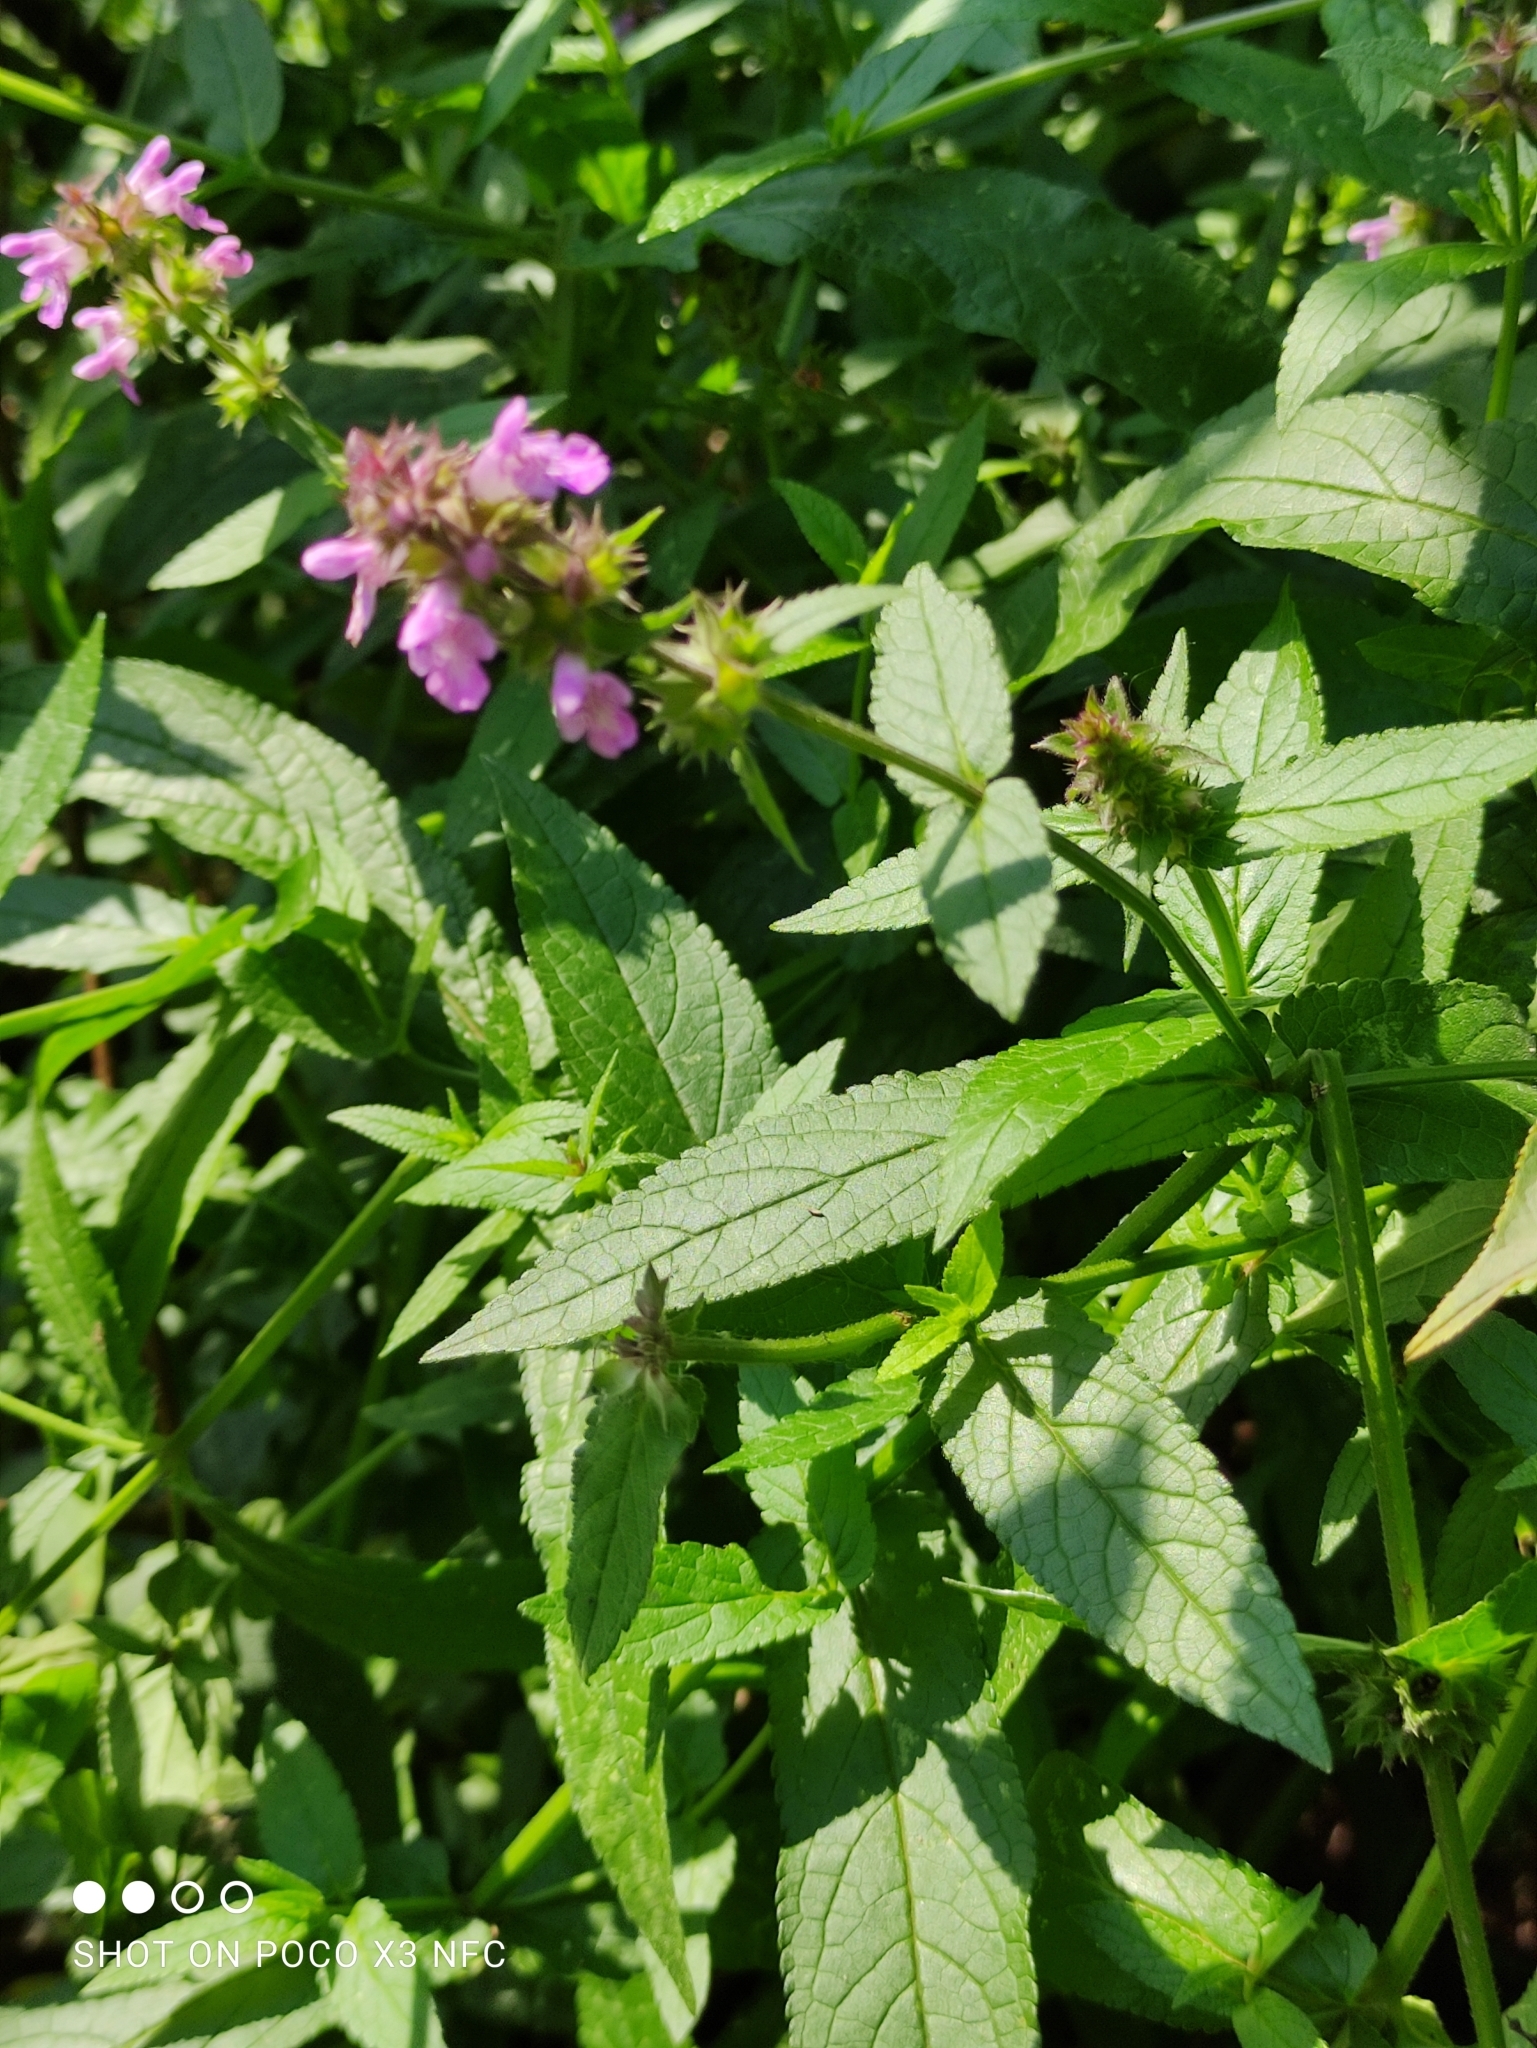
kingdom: Plantae
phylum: Tracheophyta
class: Magnoliopsida
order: Lamiales
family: Lamiaceae
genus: Stachys
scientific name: Stachys palustris
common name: Marsh woundwort
